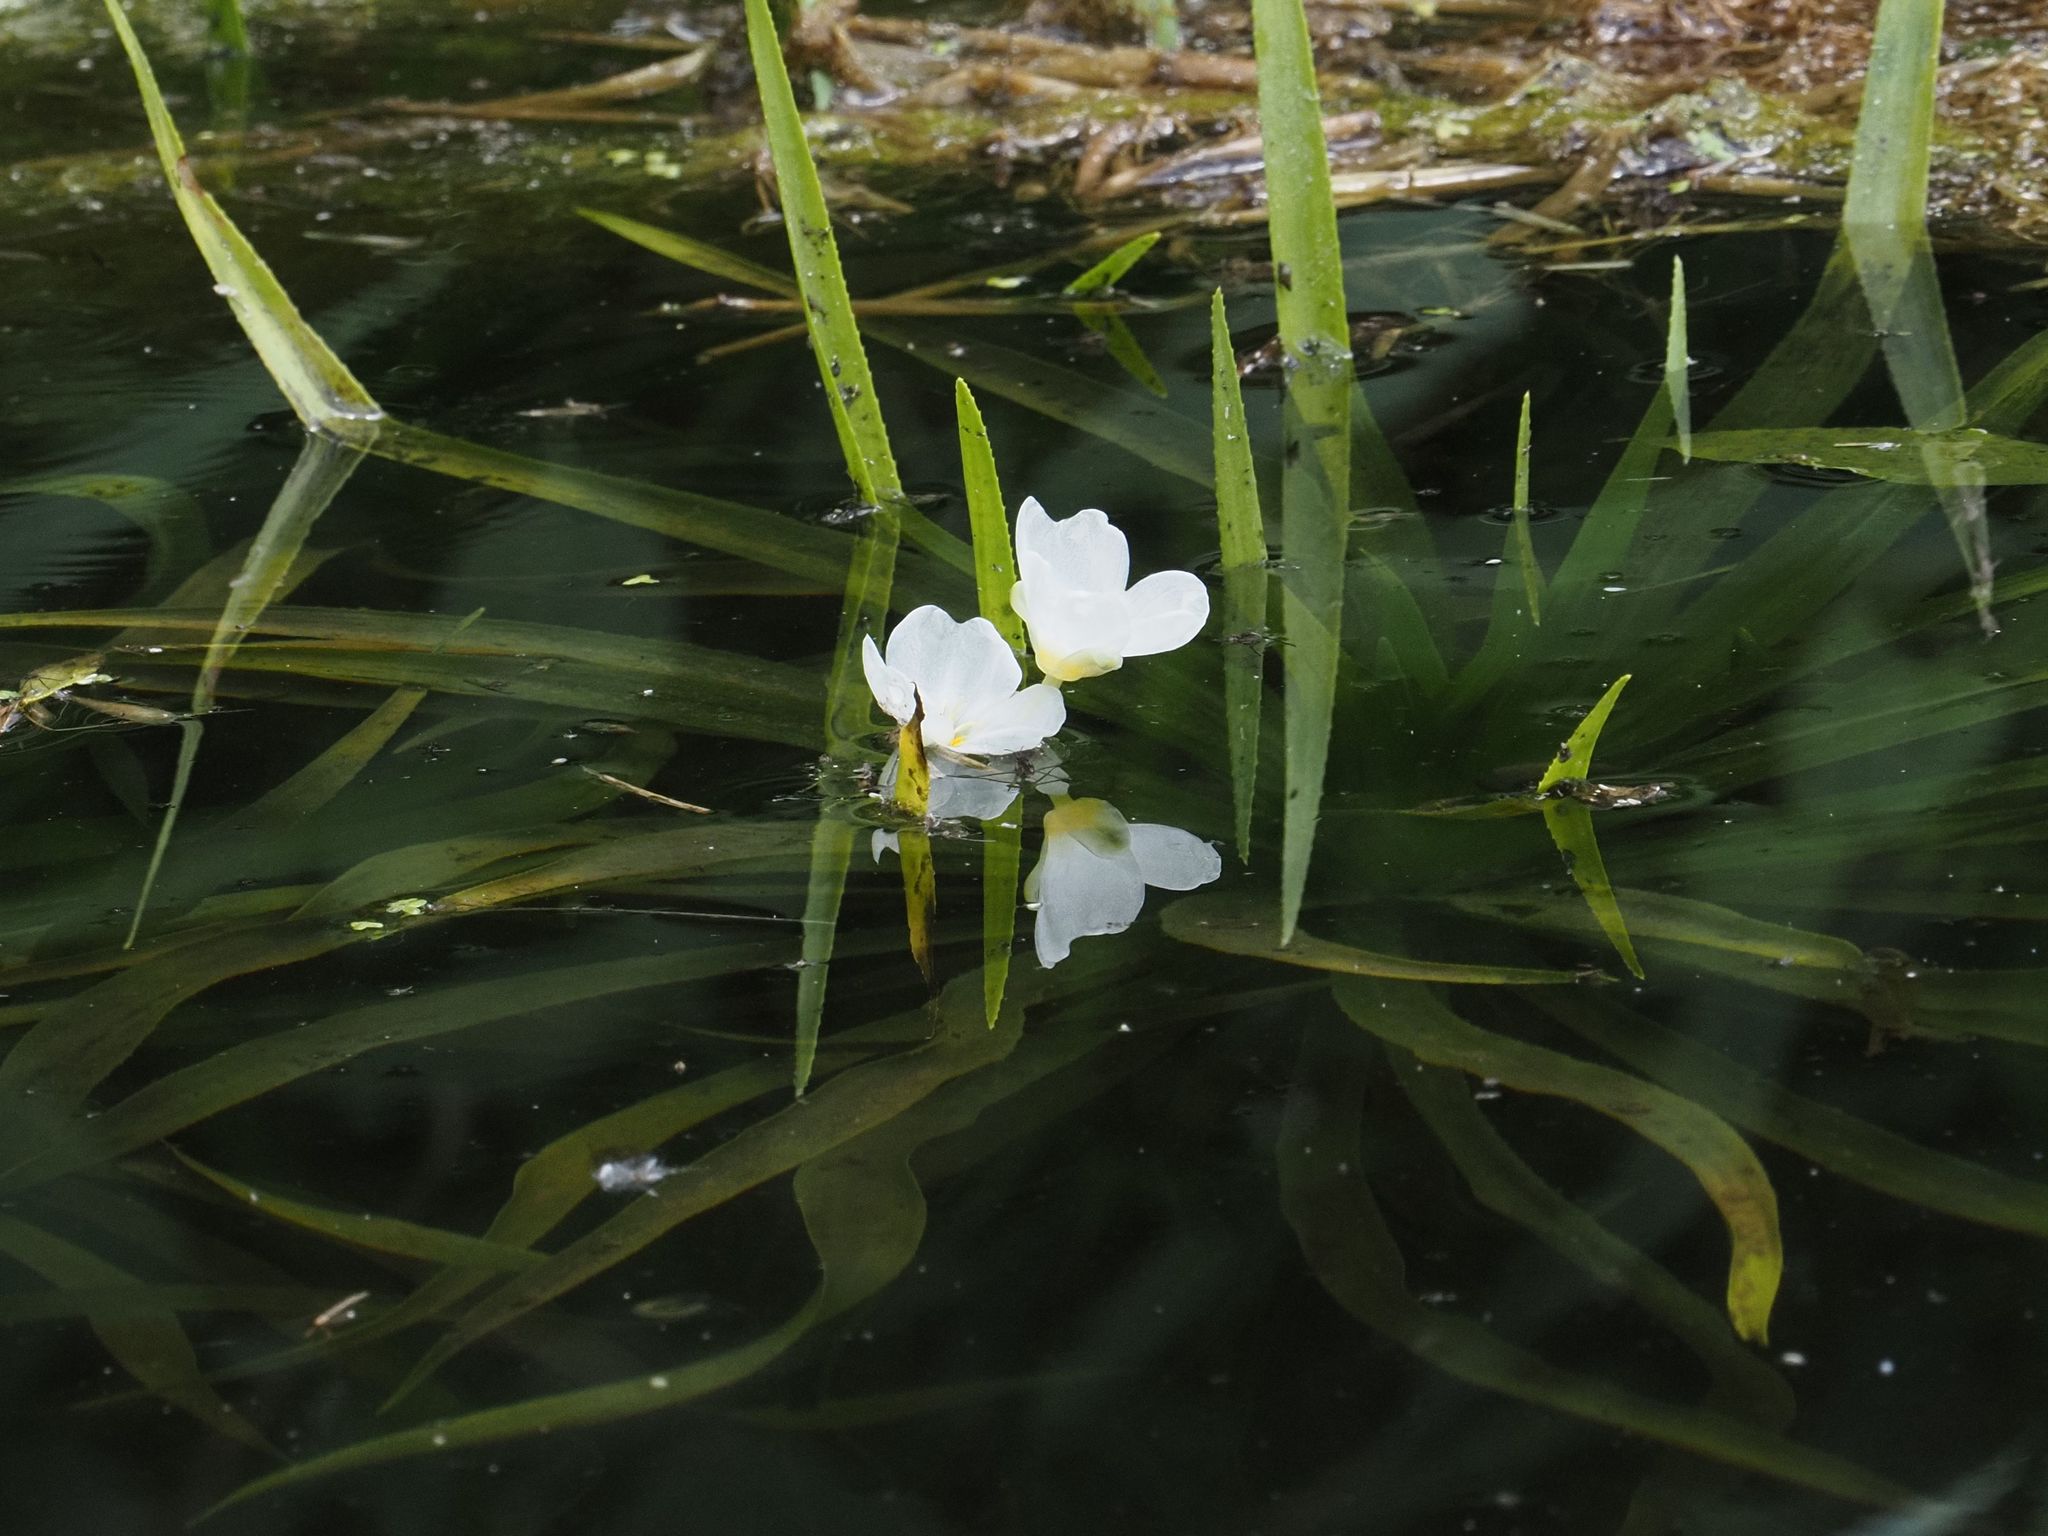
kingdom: Plantae
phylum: Tracheophyta
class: Liliopsida
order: Alismatales
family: Hydrocharitaceae
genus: Stratiotes
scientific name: Stratiotes aloides
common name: Water-soldier
